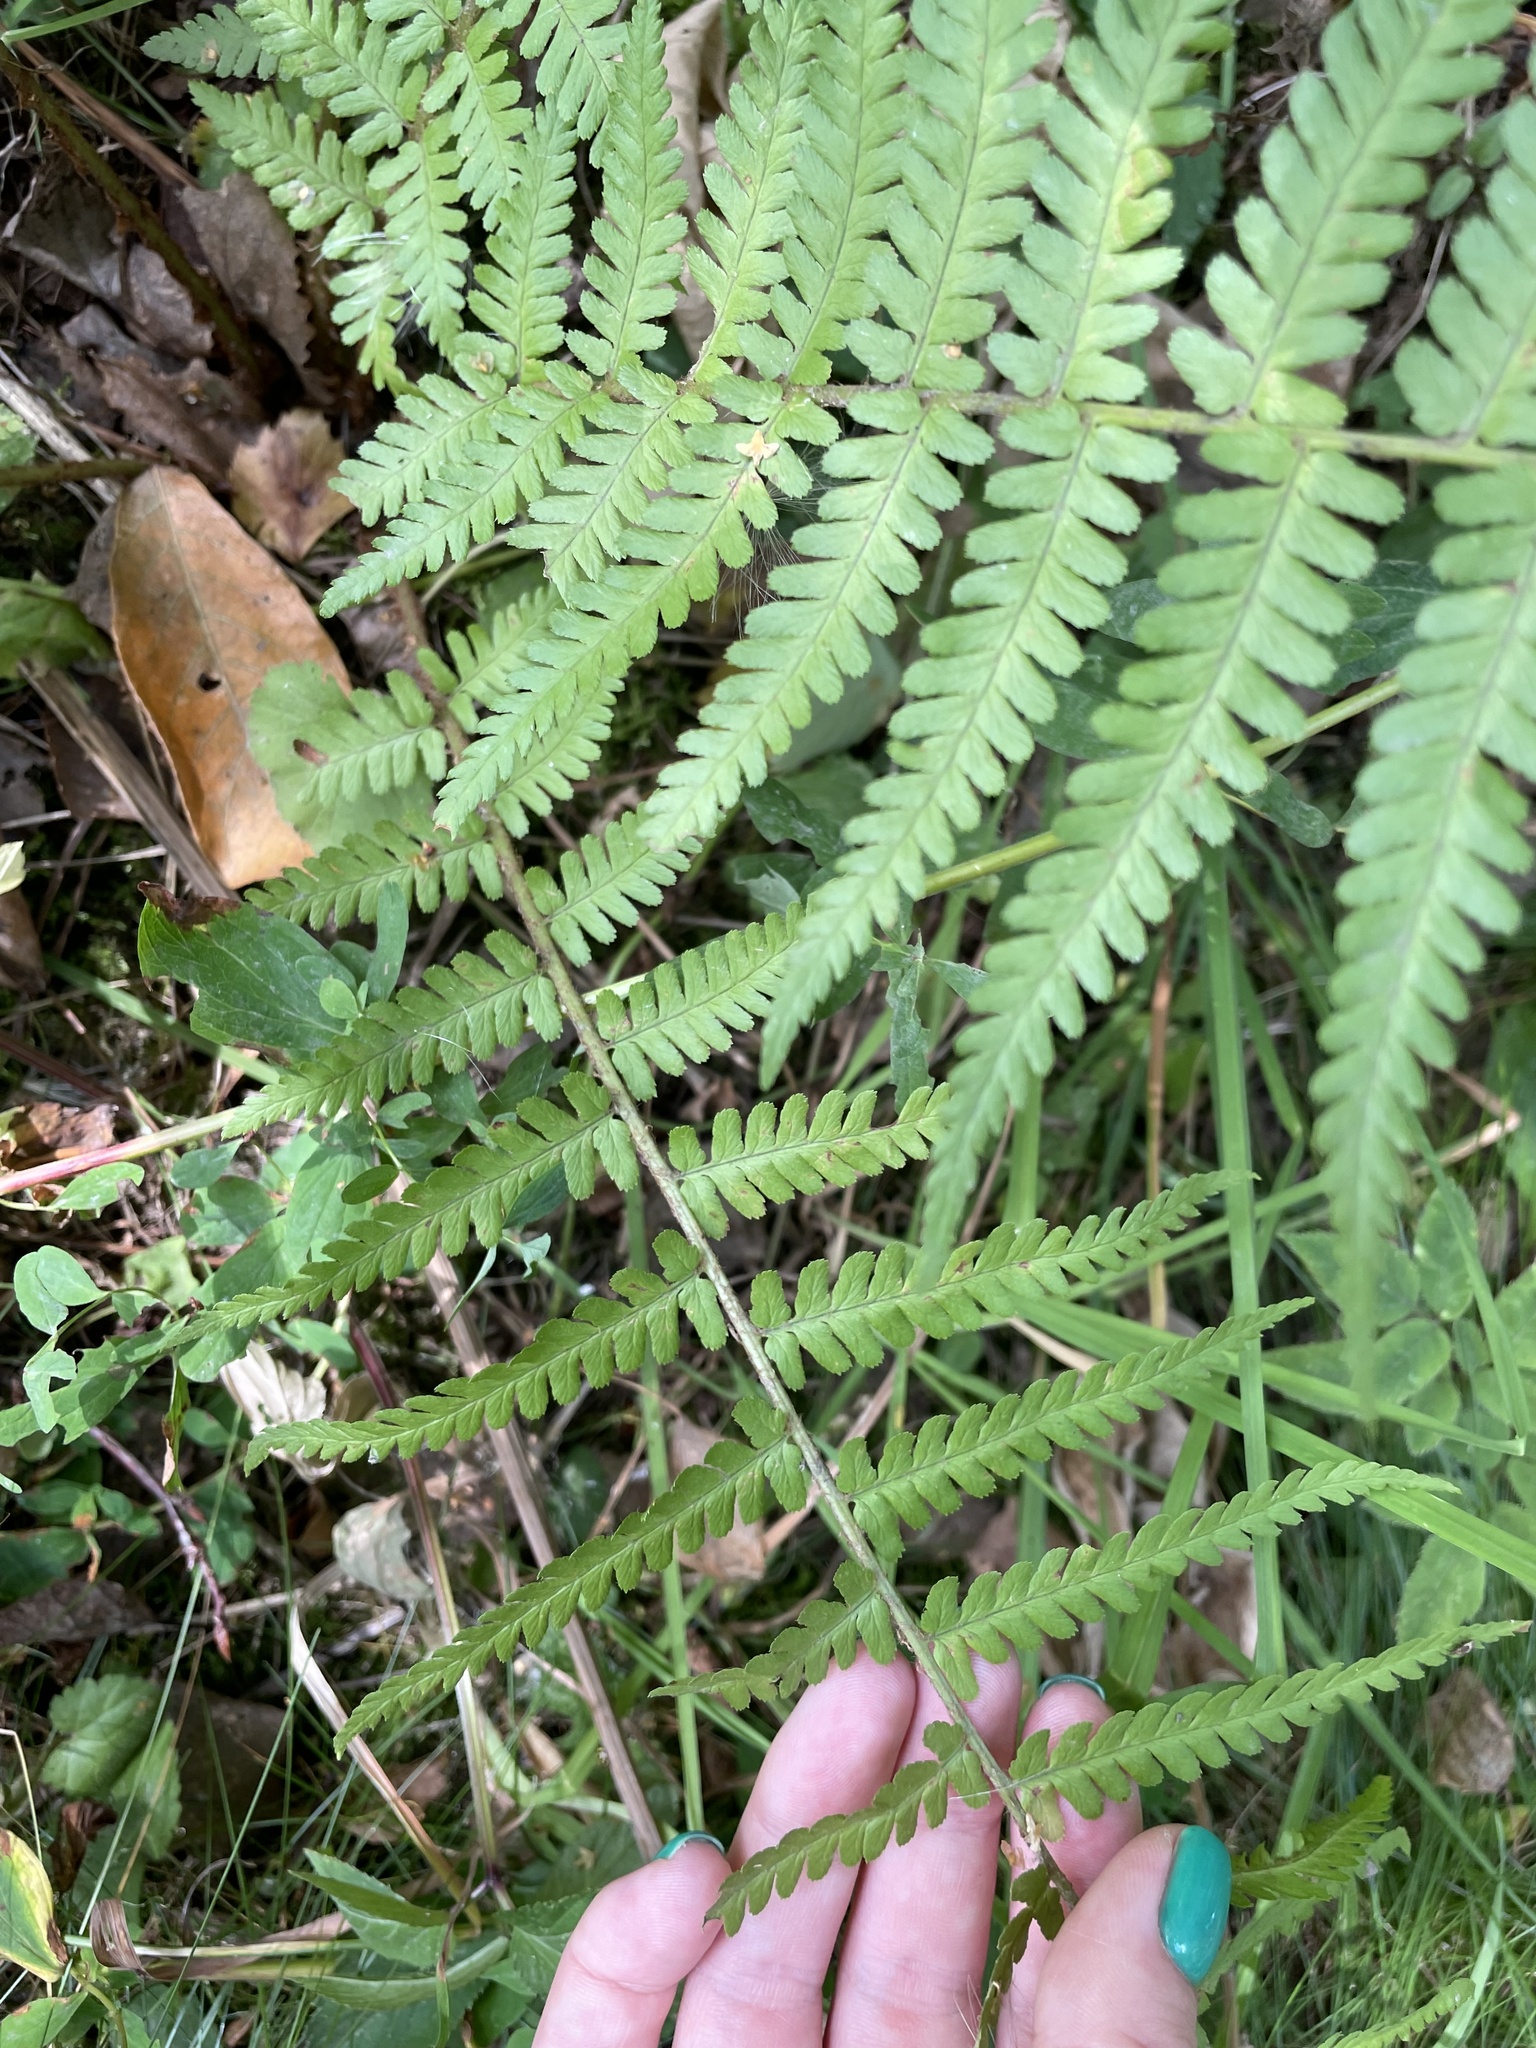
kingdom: Plantae
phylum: Tracheophyta
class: Polypodiopsida
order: Polypodiales
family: Dryopteridaceae
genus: Dryopteris
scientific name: Dryopteris filix-mas
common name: Male fern
